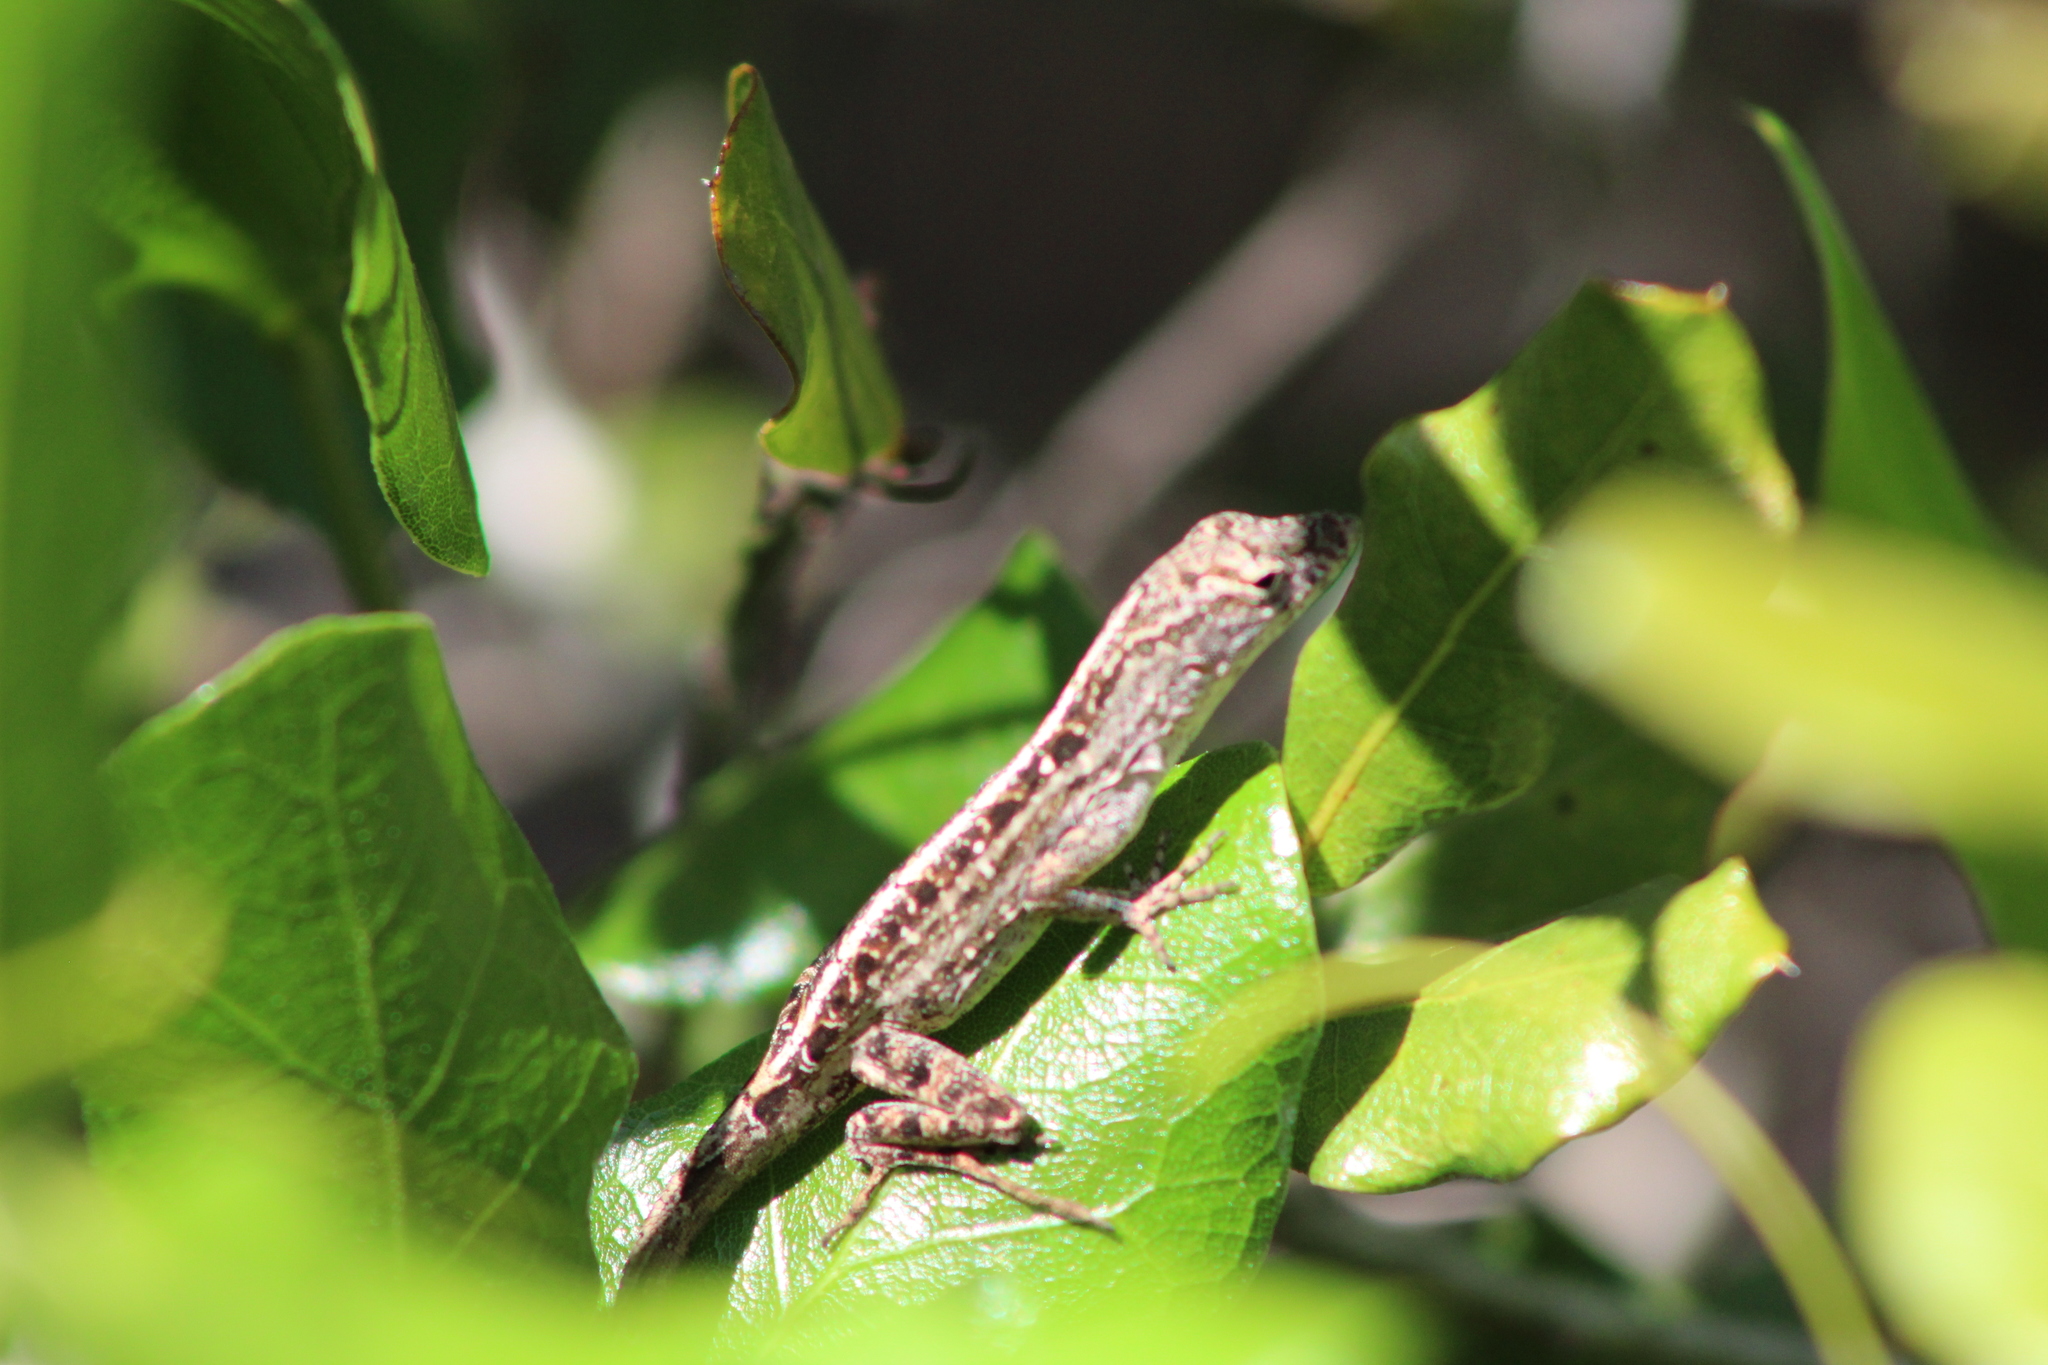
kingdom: Animalia
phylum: Chordata
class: Squamata
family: Dactyloidae
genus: Anolis
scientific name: Anolis sagrei
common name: Brown anole
